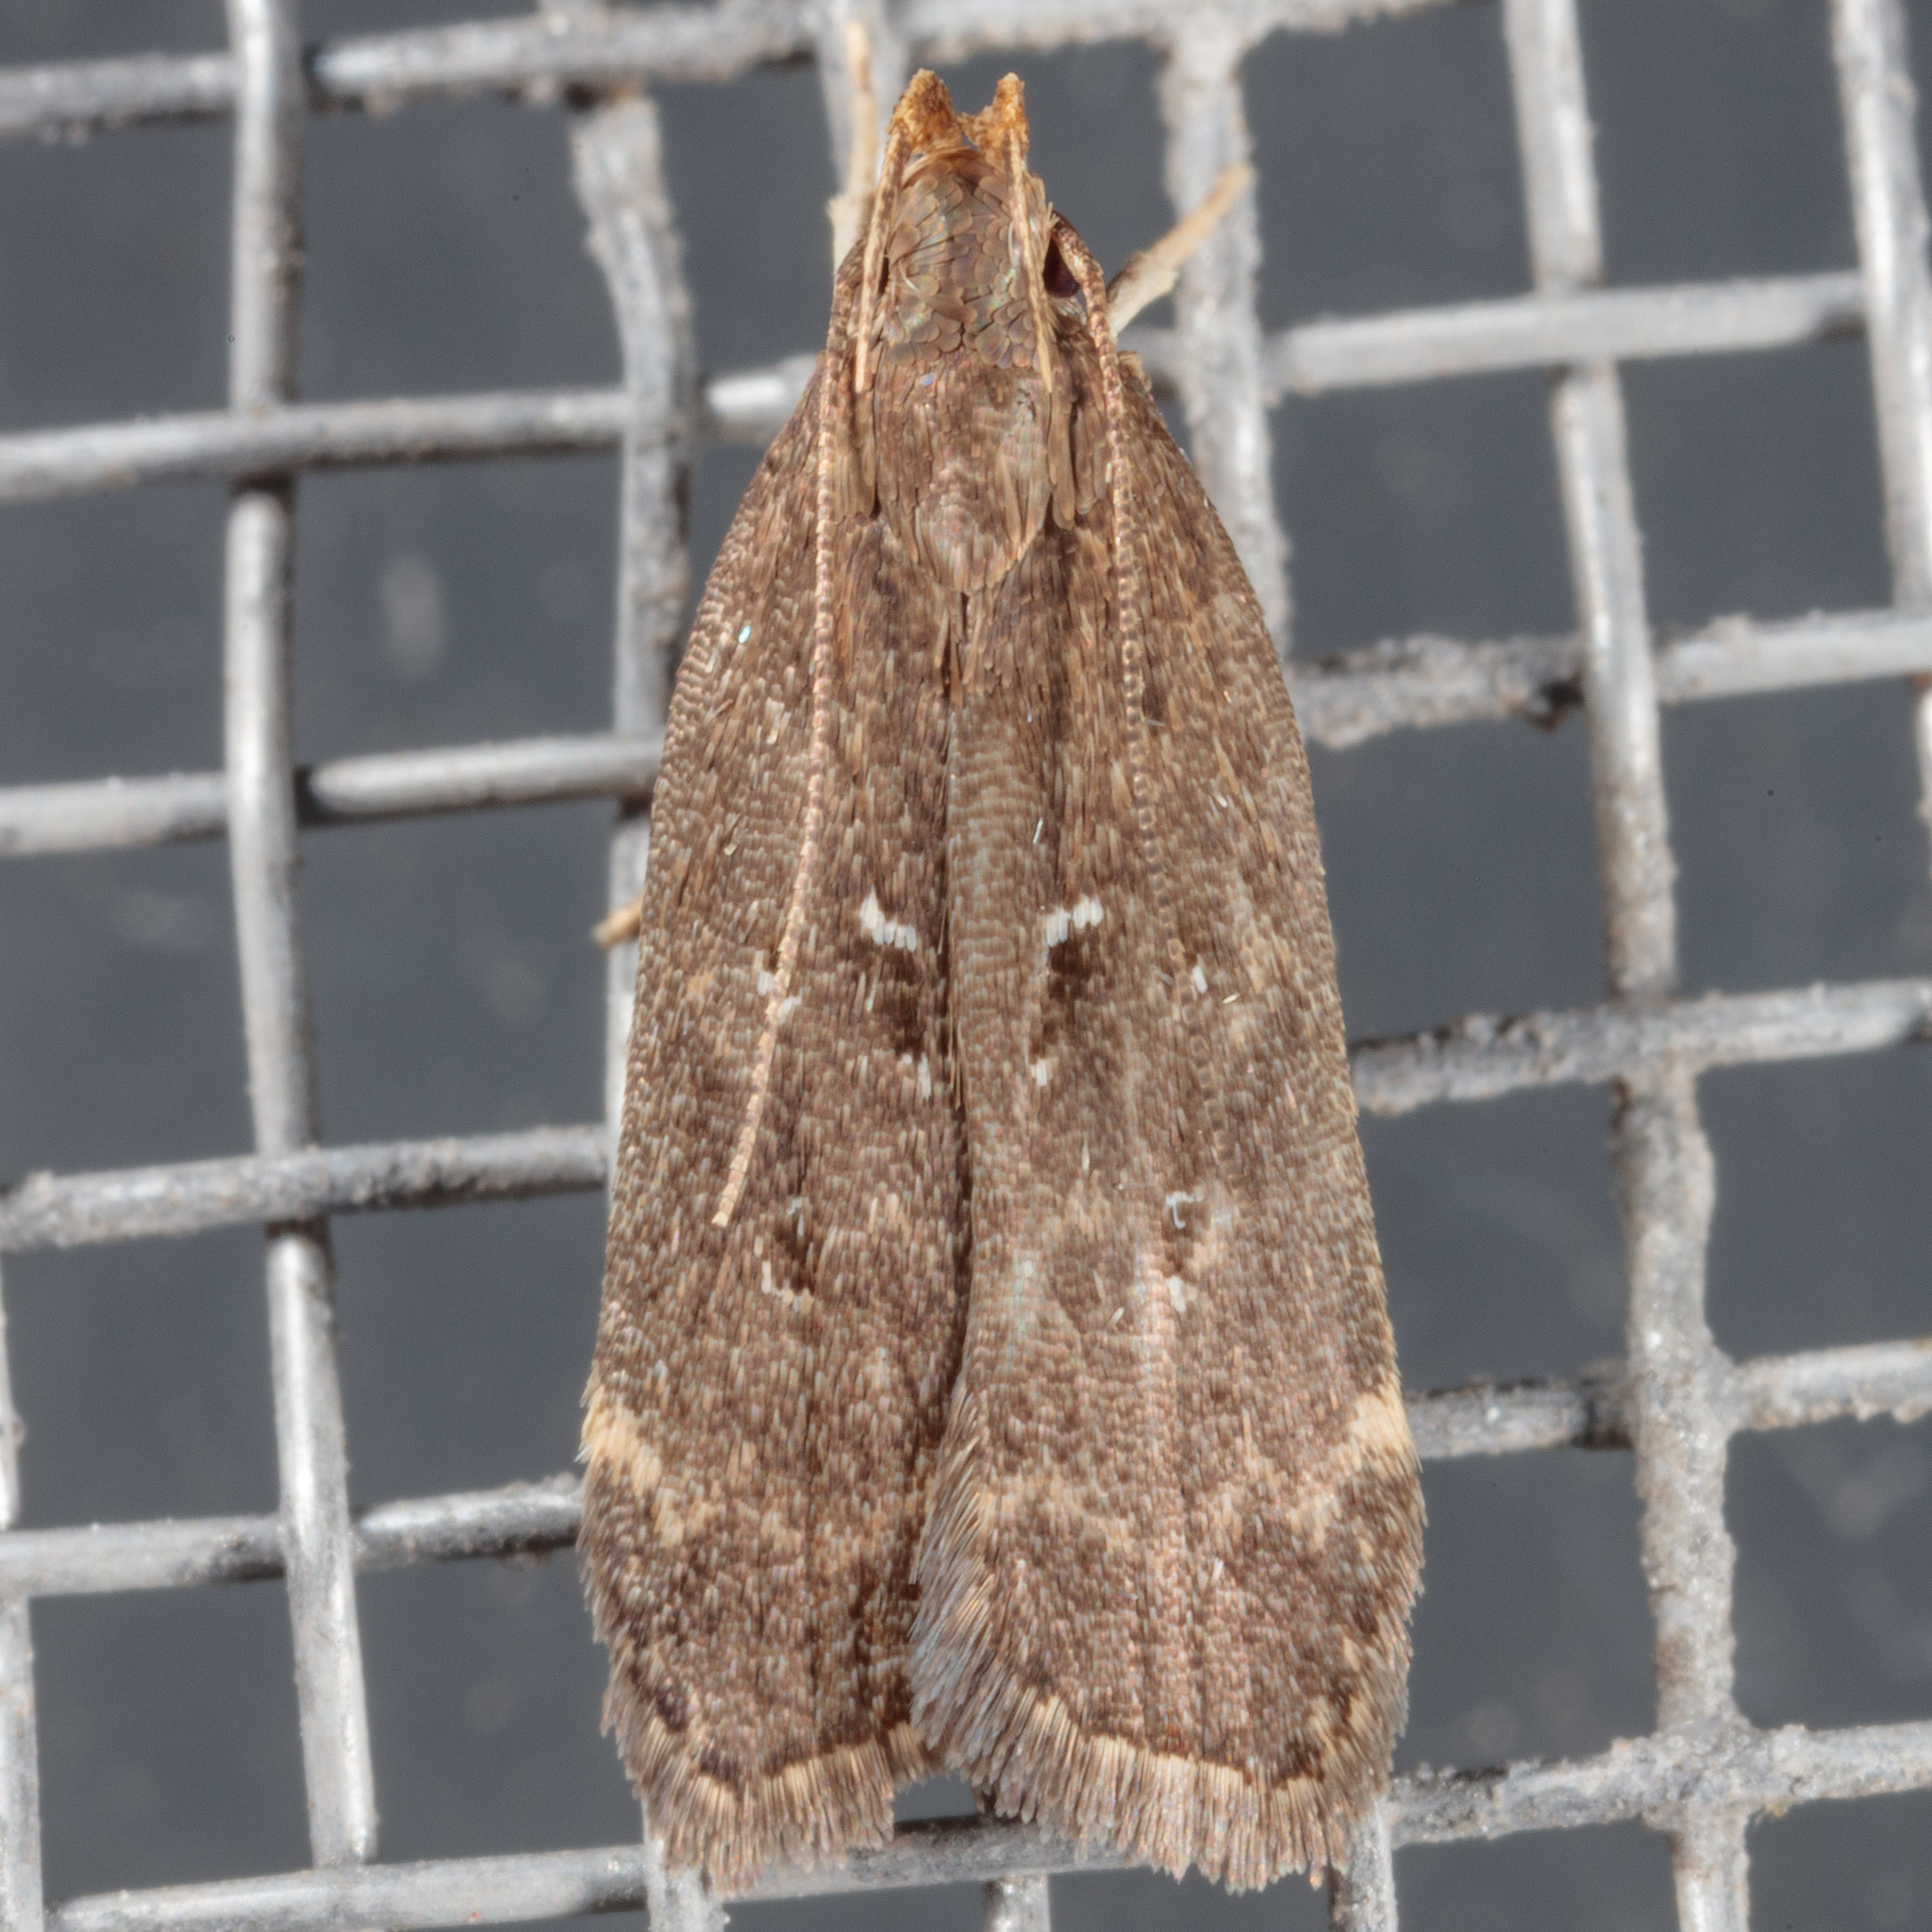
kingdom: Animalia
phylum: Arthropoda
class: Insecta
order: Lepidoptera
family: Gelechiidae
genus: Helcystogramma
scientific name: Helcystogramma melantherella
